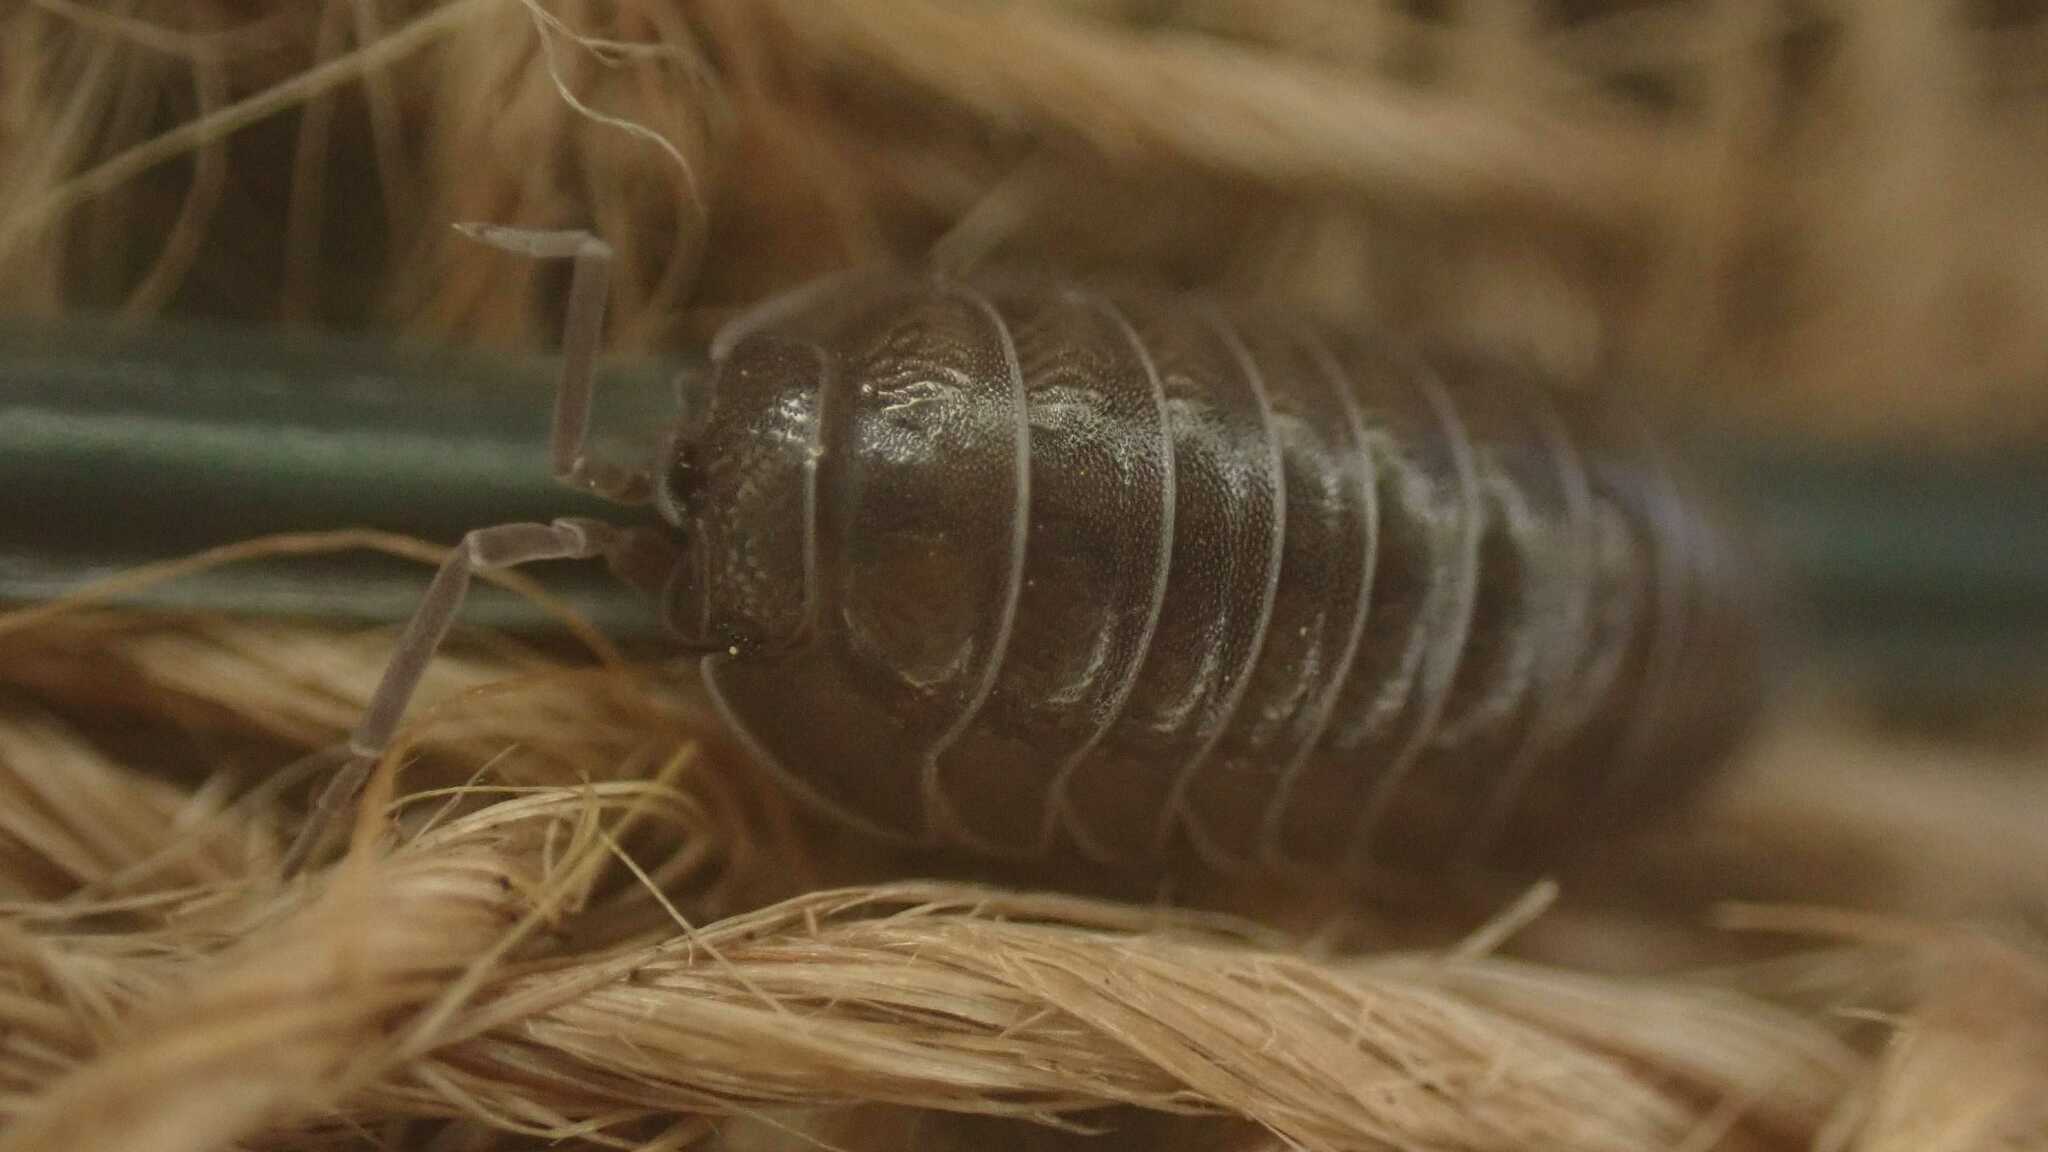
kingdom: Animalia
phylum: Arthropoda
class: Malacostraca
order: Isopoda
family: Armadillidiidae
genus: Armadillidium
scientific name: Armadillidium nasatum
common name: Isopod
